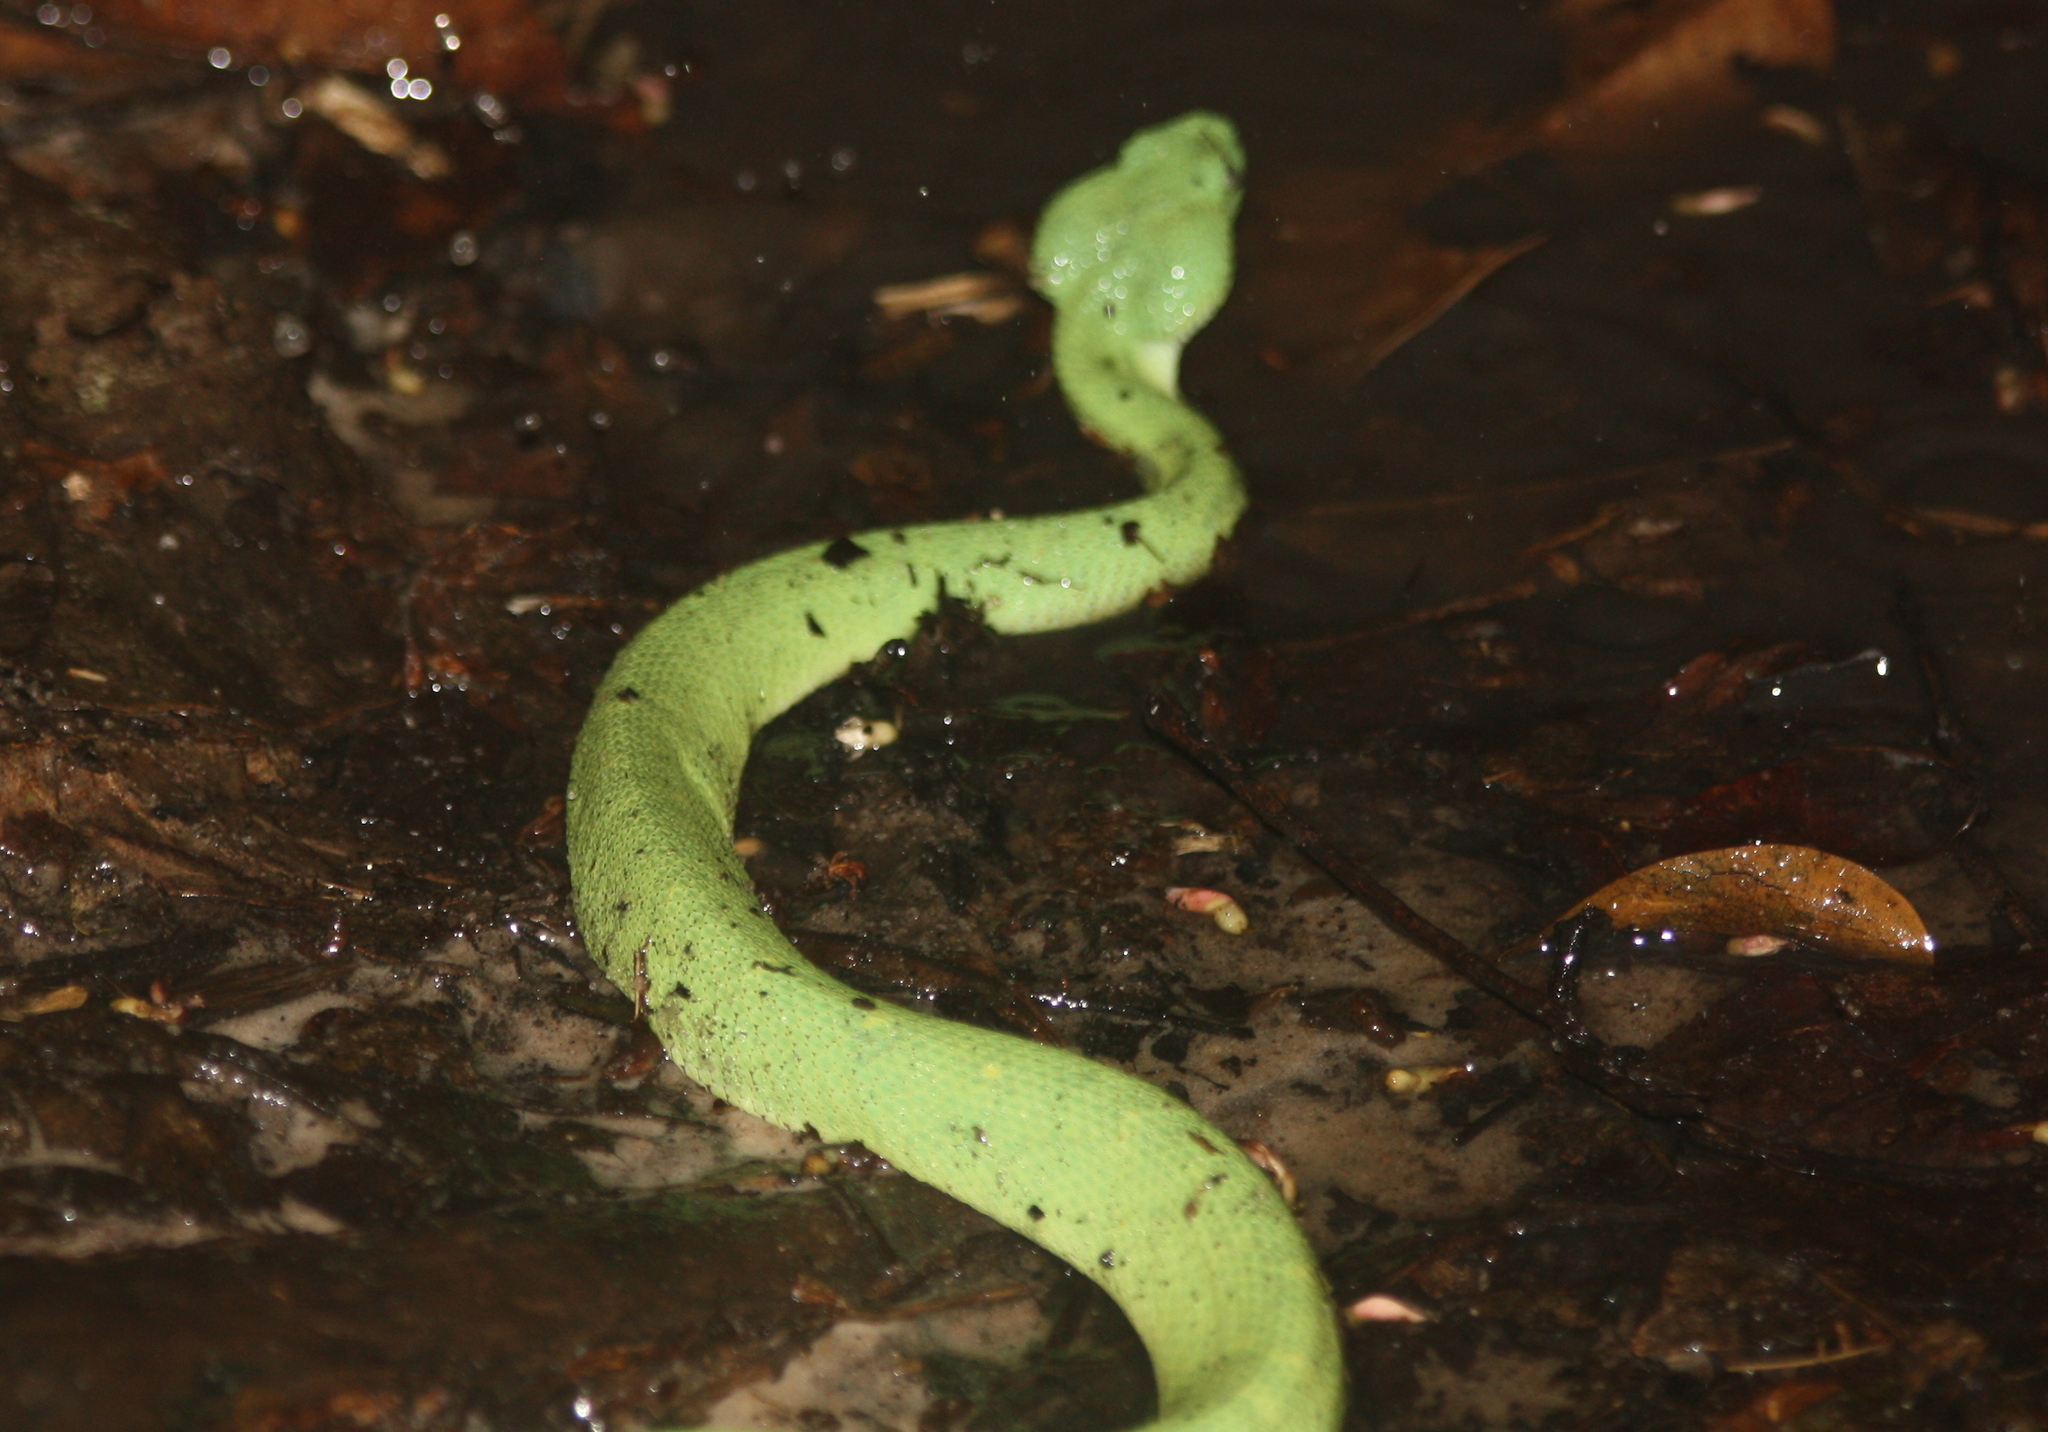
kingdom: Animalia
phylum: Chordata
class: Squamata
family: Viperidae
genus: Atheris
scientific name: Atheris chlorechis
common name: Green bush viper
